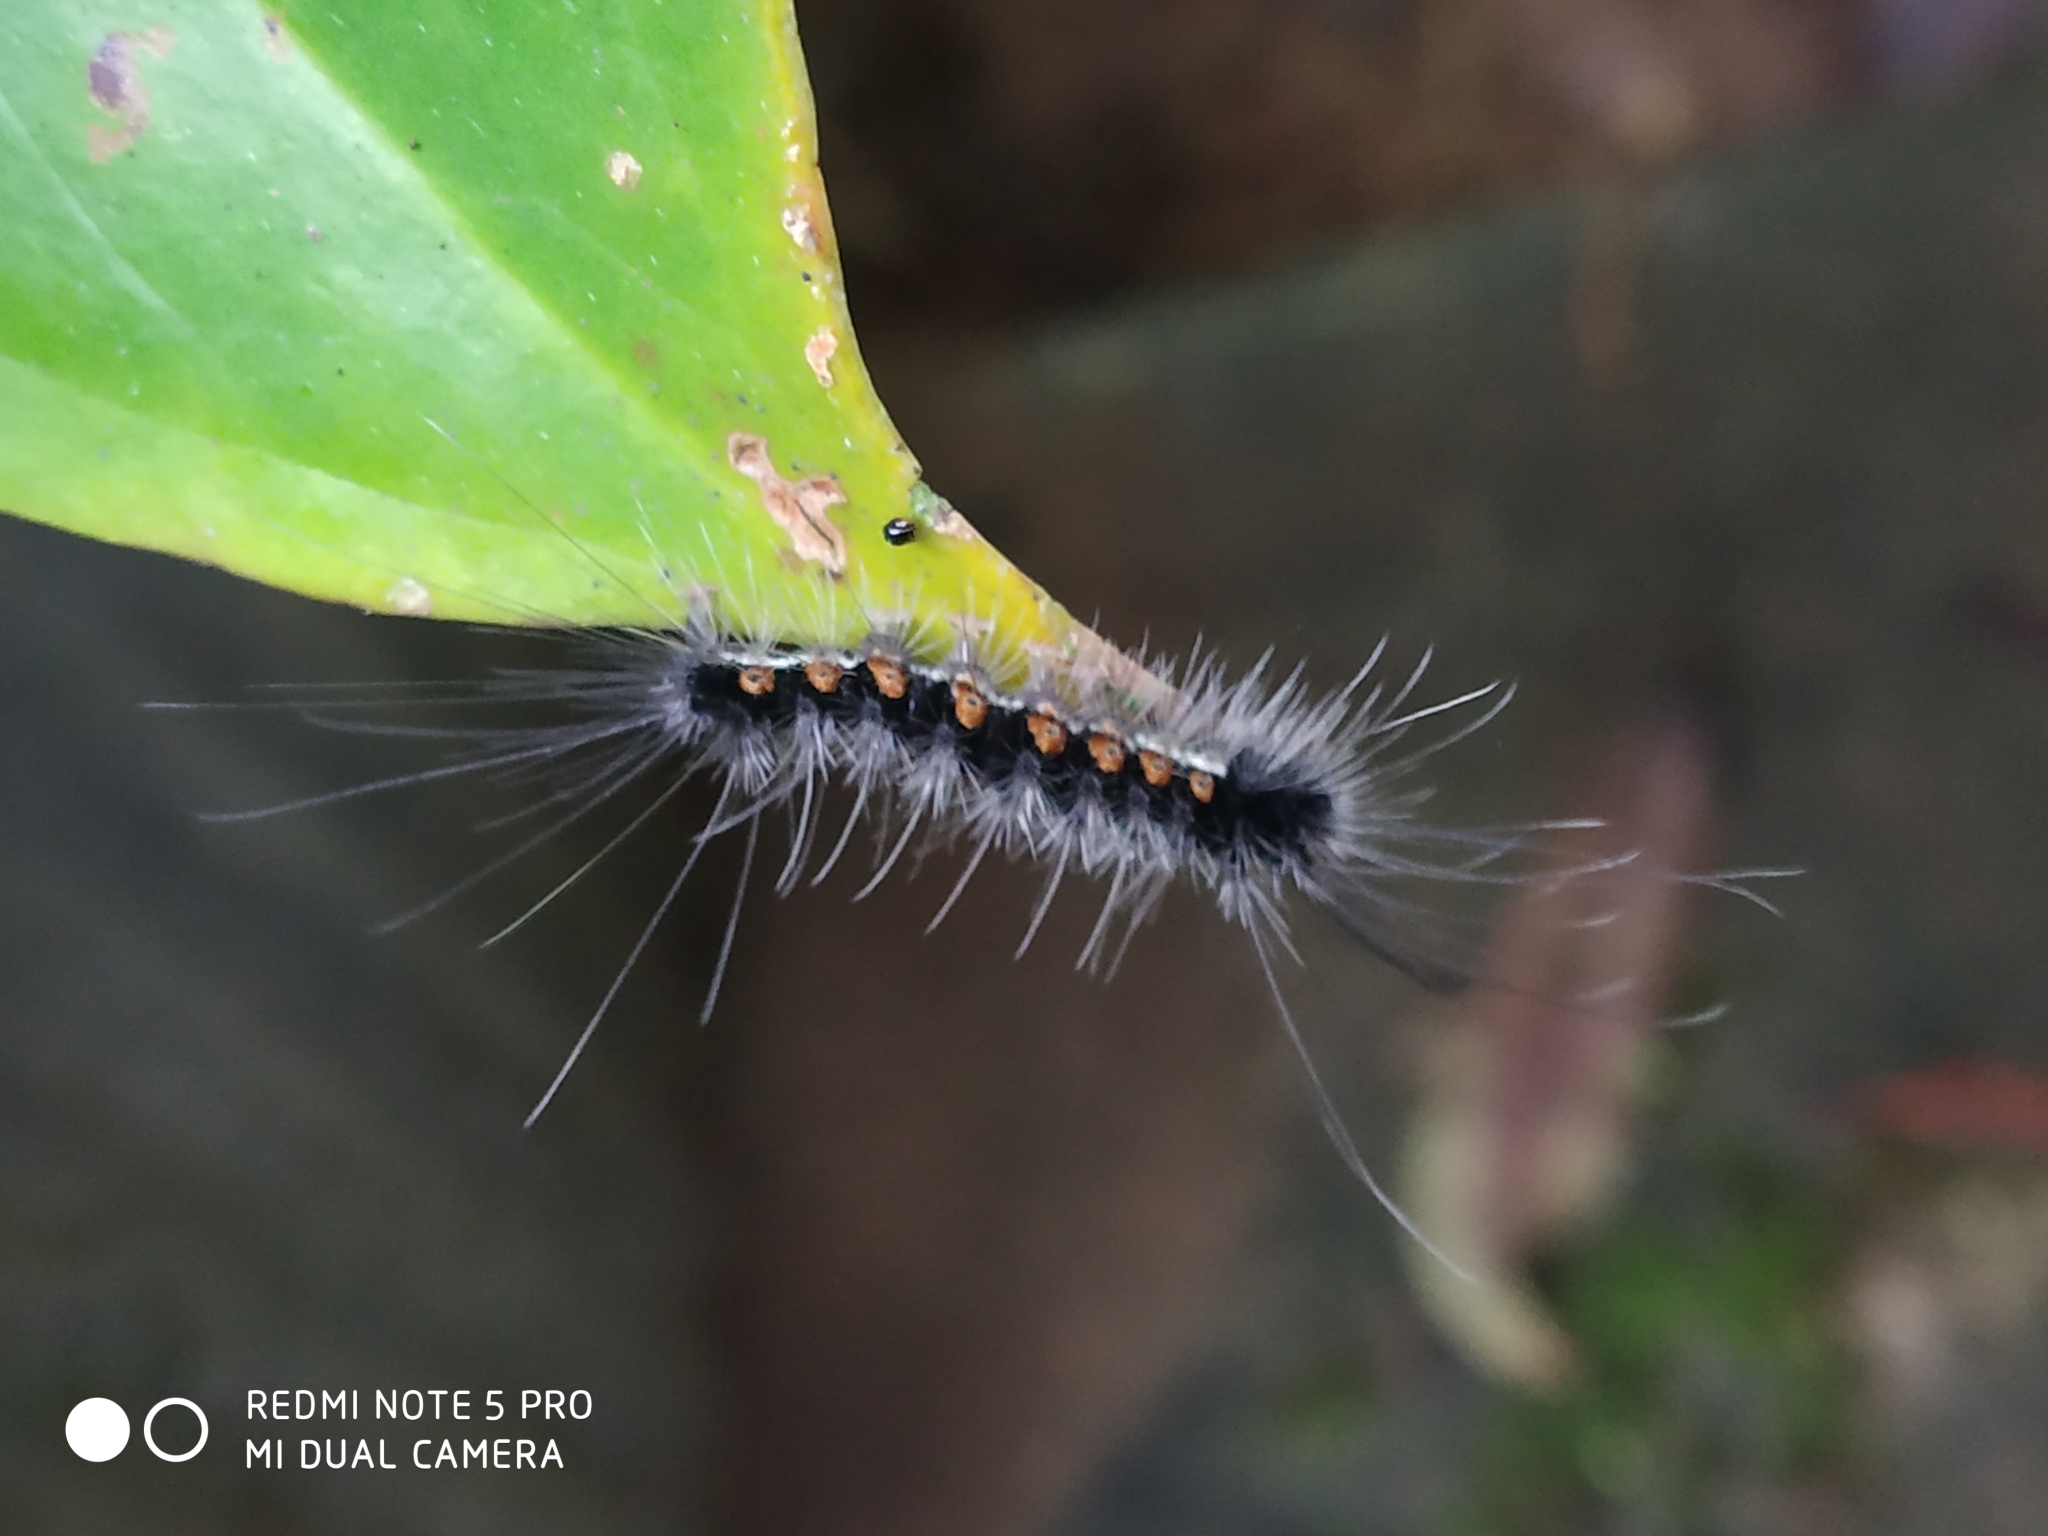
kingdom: Animalia
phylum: Arthropoda
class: Insecta
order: Lepidoptera
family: Erebidae
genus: Macrobrochis
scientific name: Macrobrochis gigas
